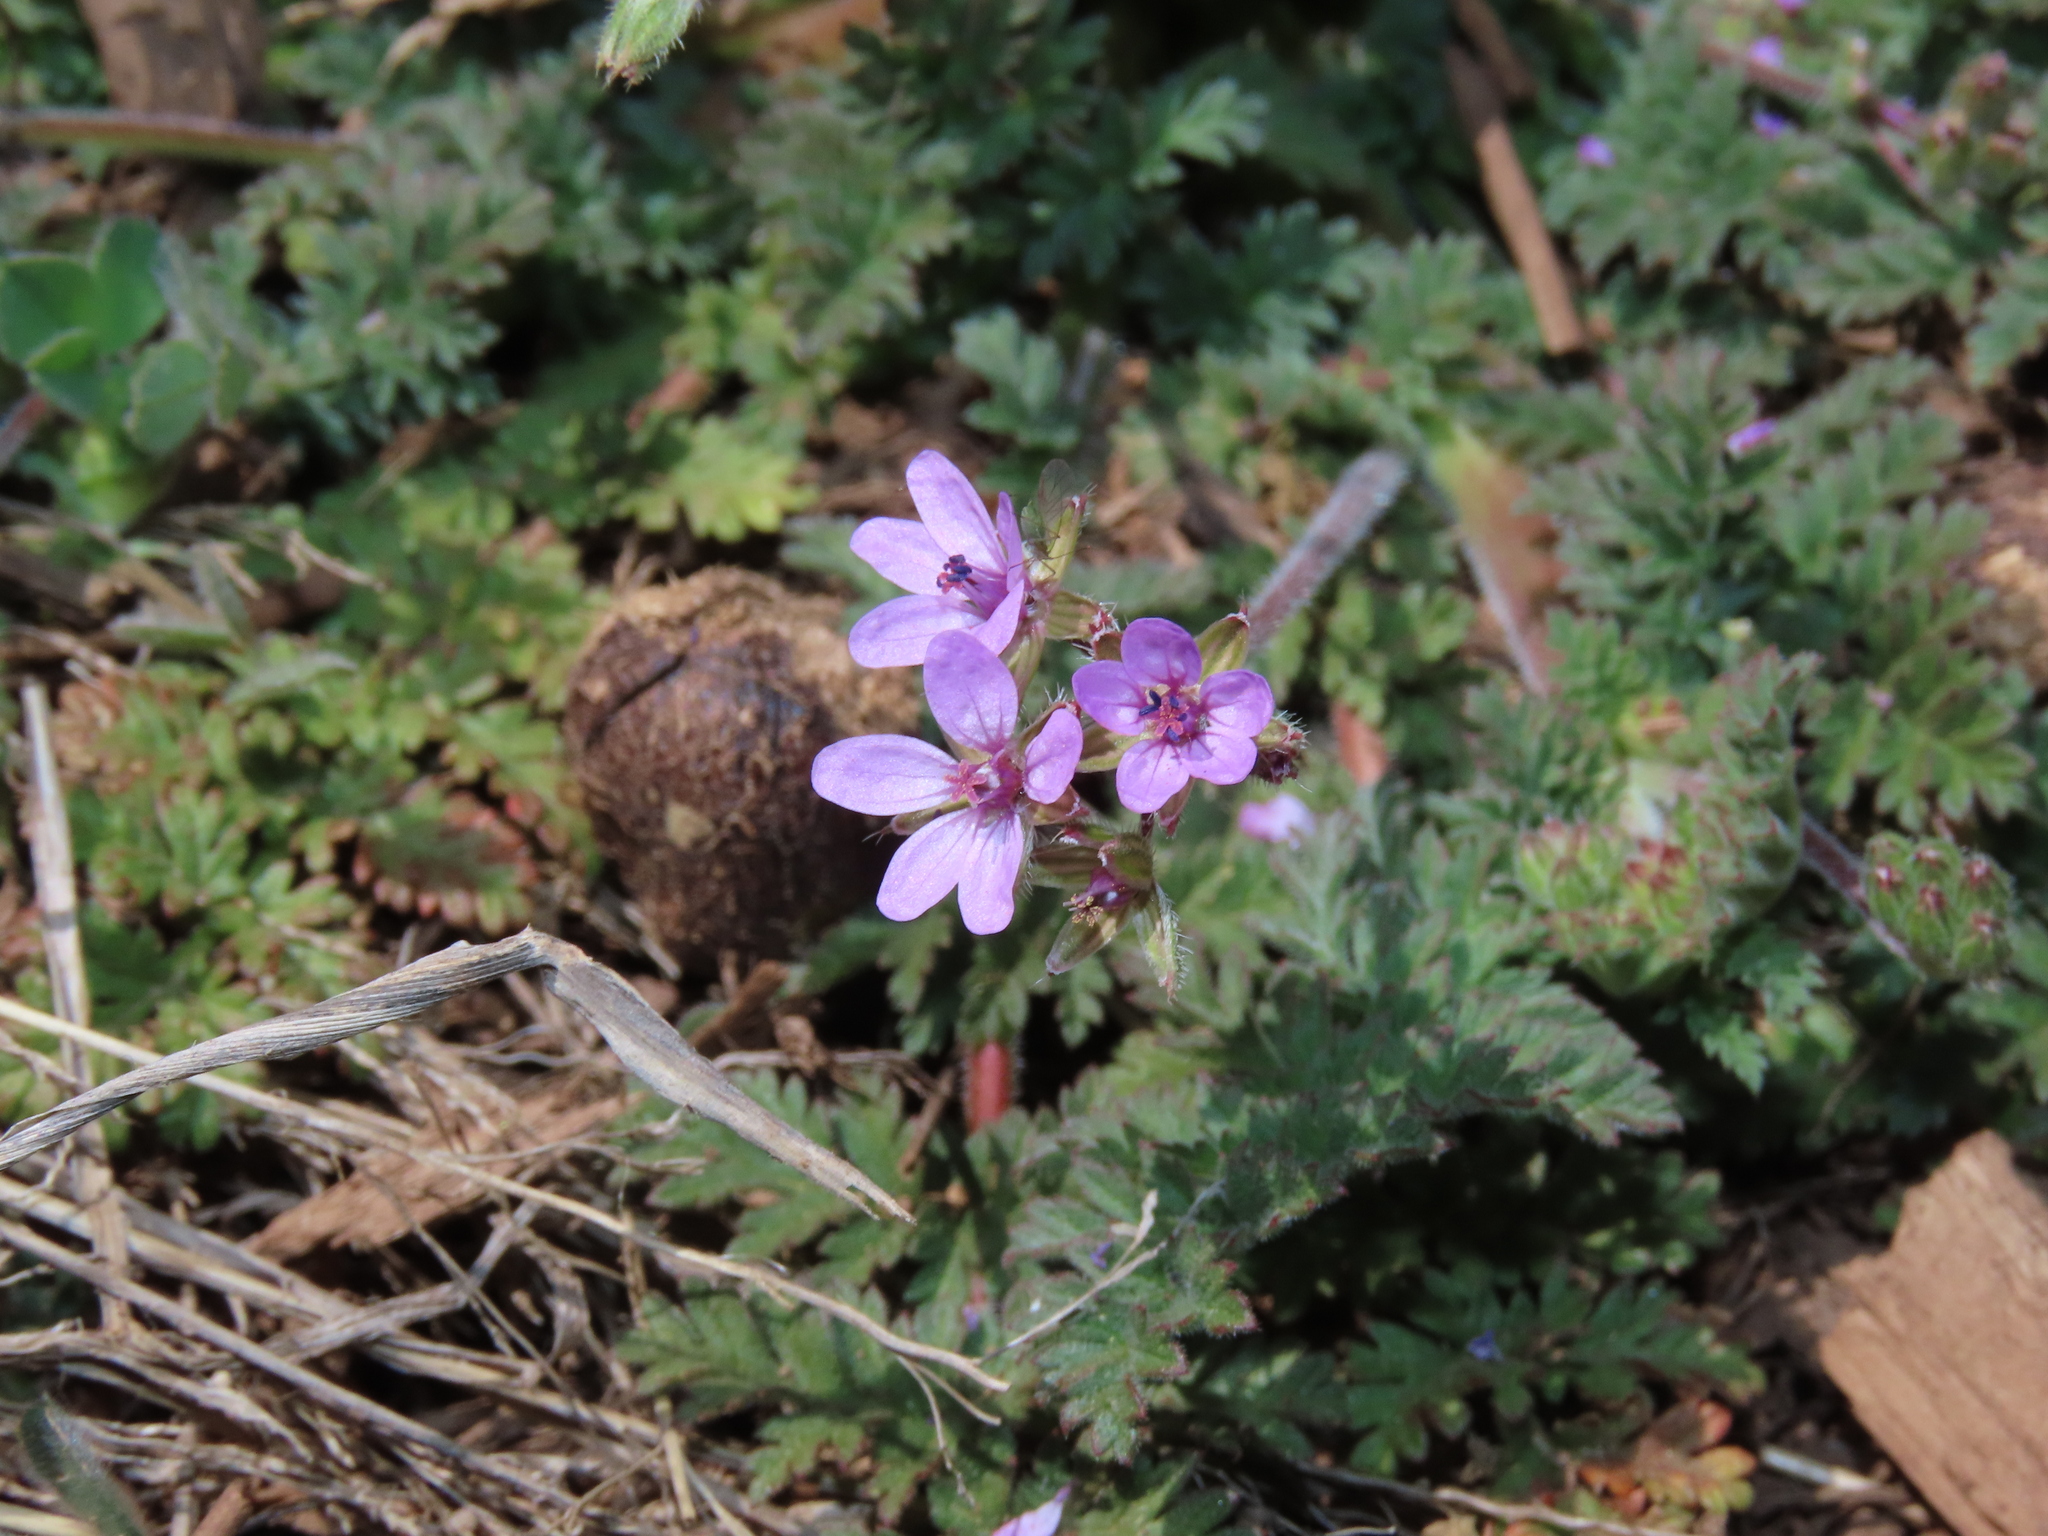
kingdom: Plantae
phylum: Tracheophyta
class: Magnoliopsida
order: Geraniales
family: Geraniaceae
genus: Erodium
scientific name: Erodium cicutarium
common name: Common stork's-bill
